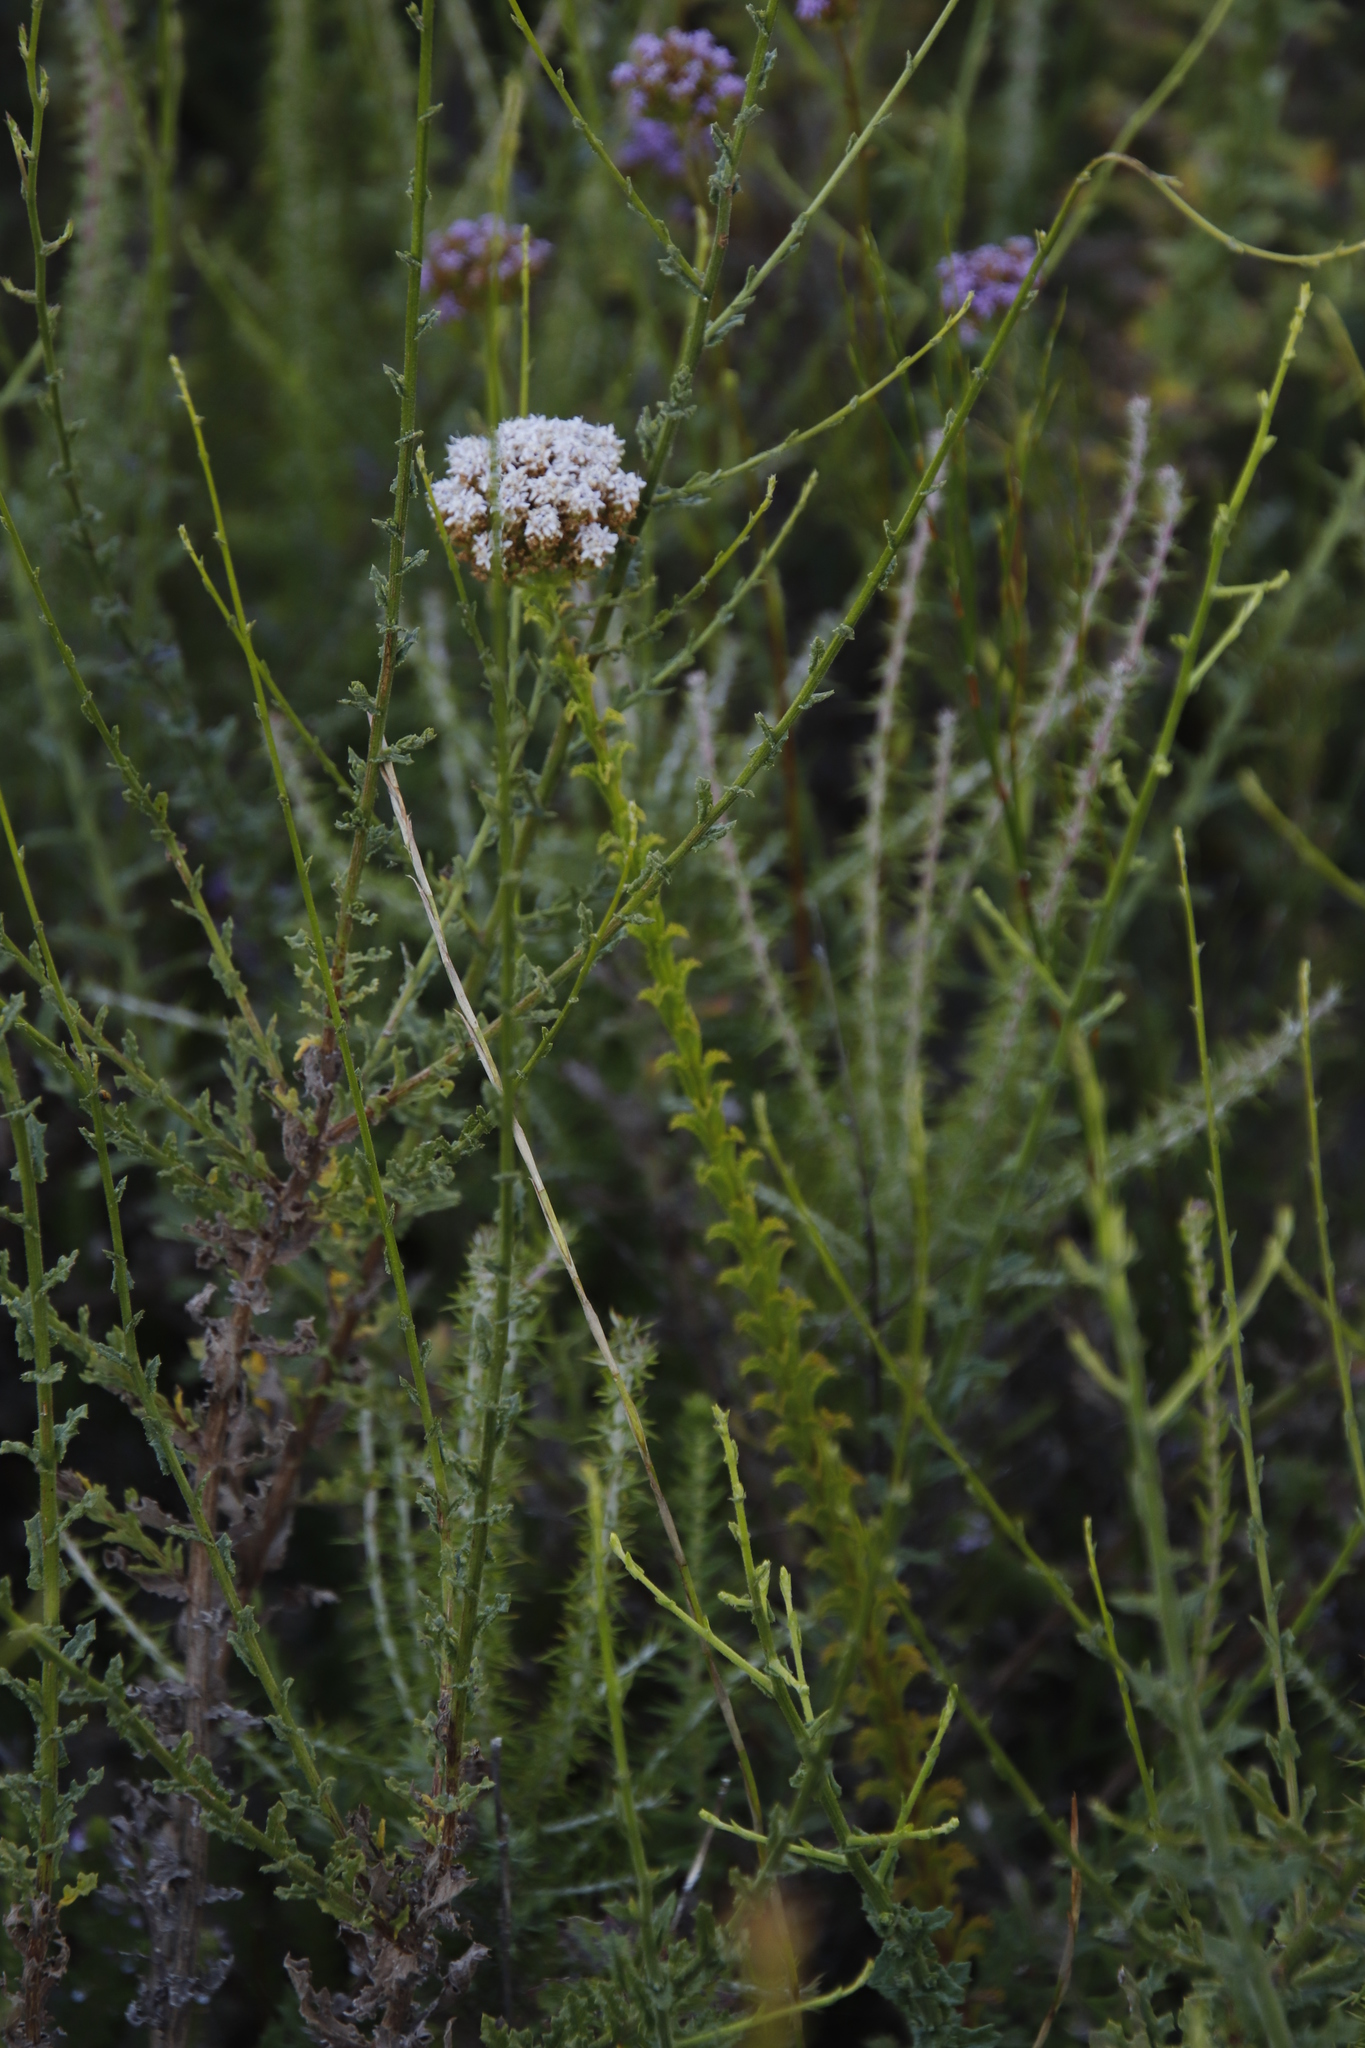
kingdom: Plantae
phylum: Tracheophyta
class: Magnoliopsida
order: Lamiales
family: Scrophulariaceae
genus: Pseudoselago
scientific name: Pseudoselago serrata
